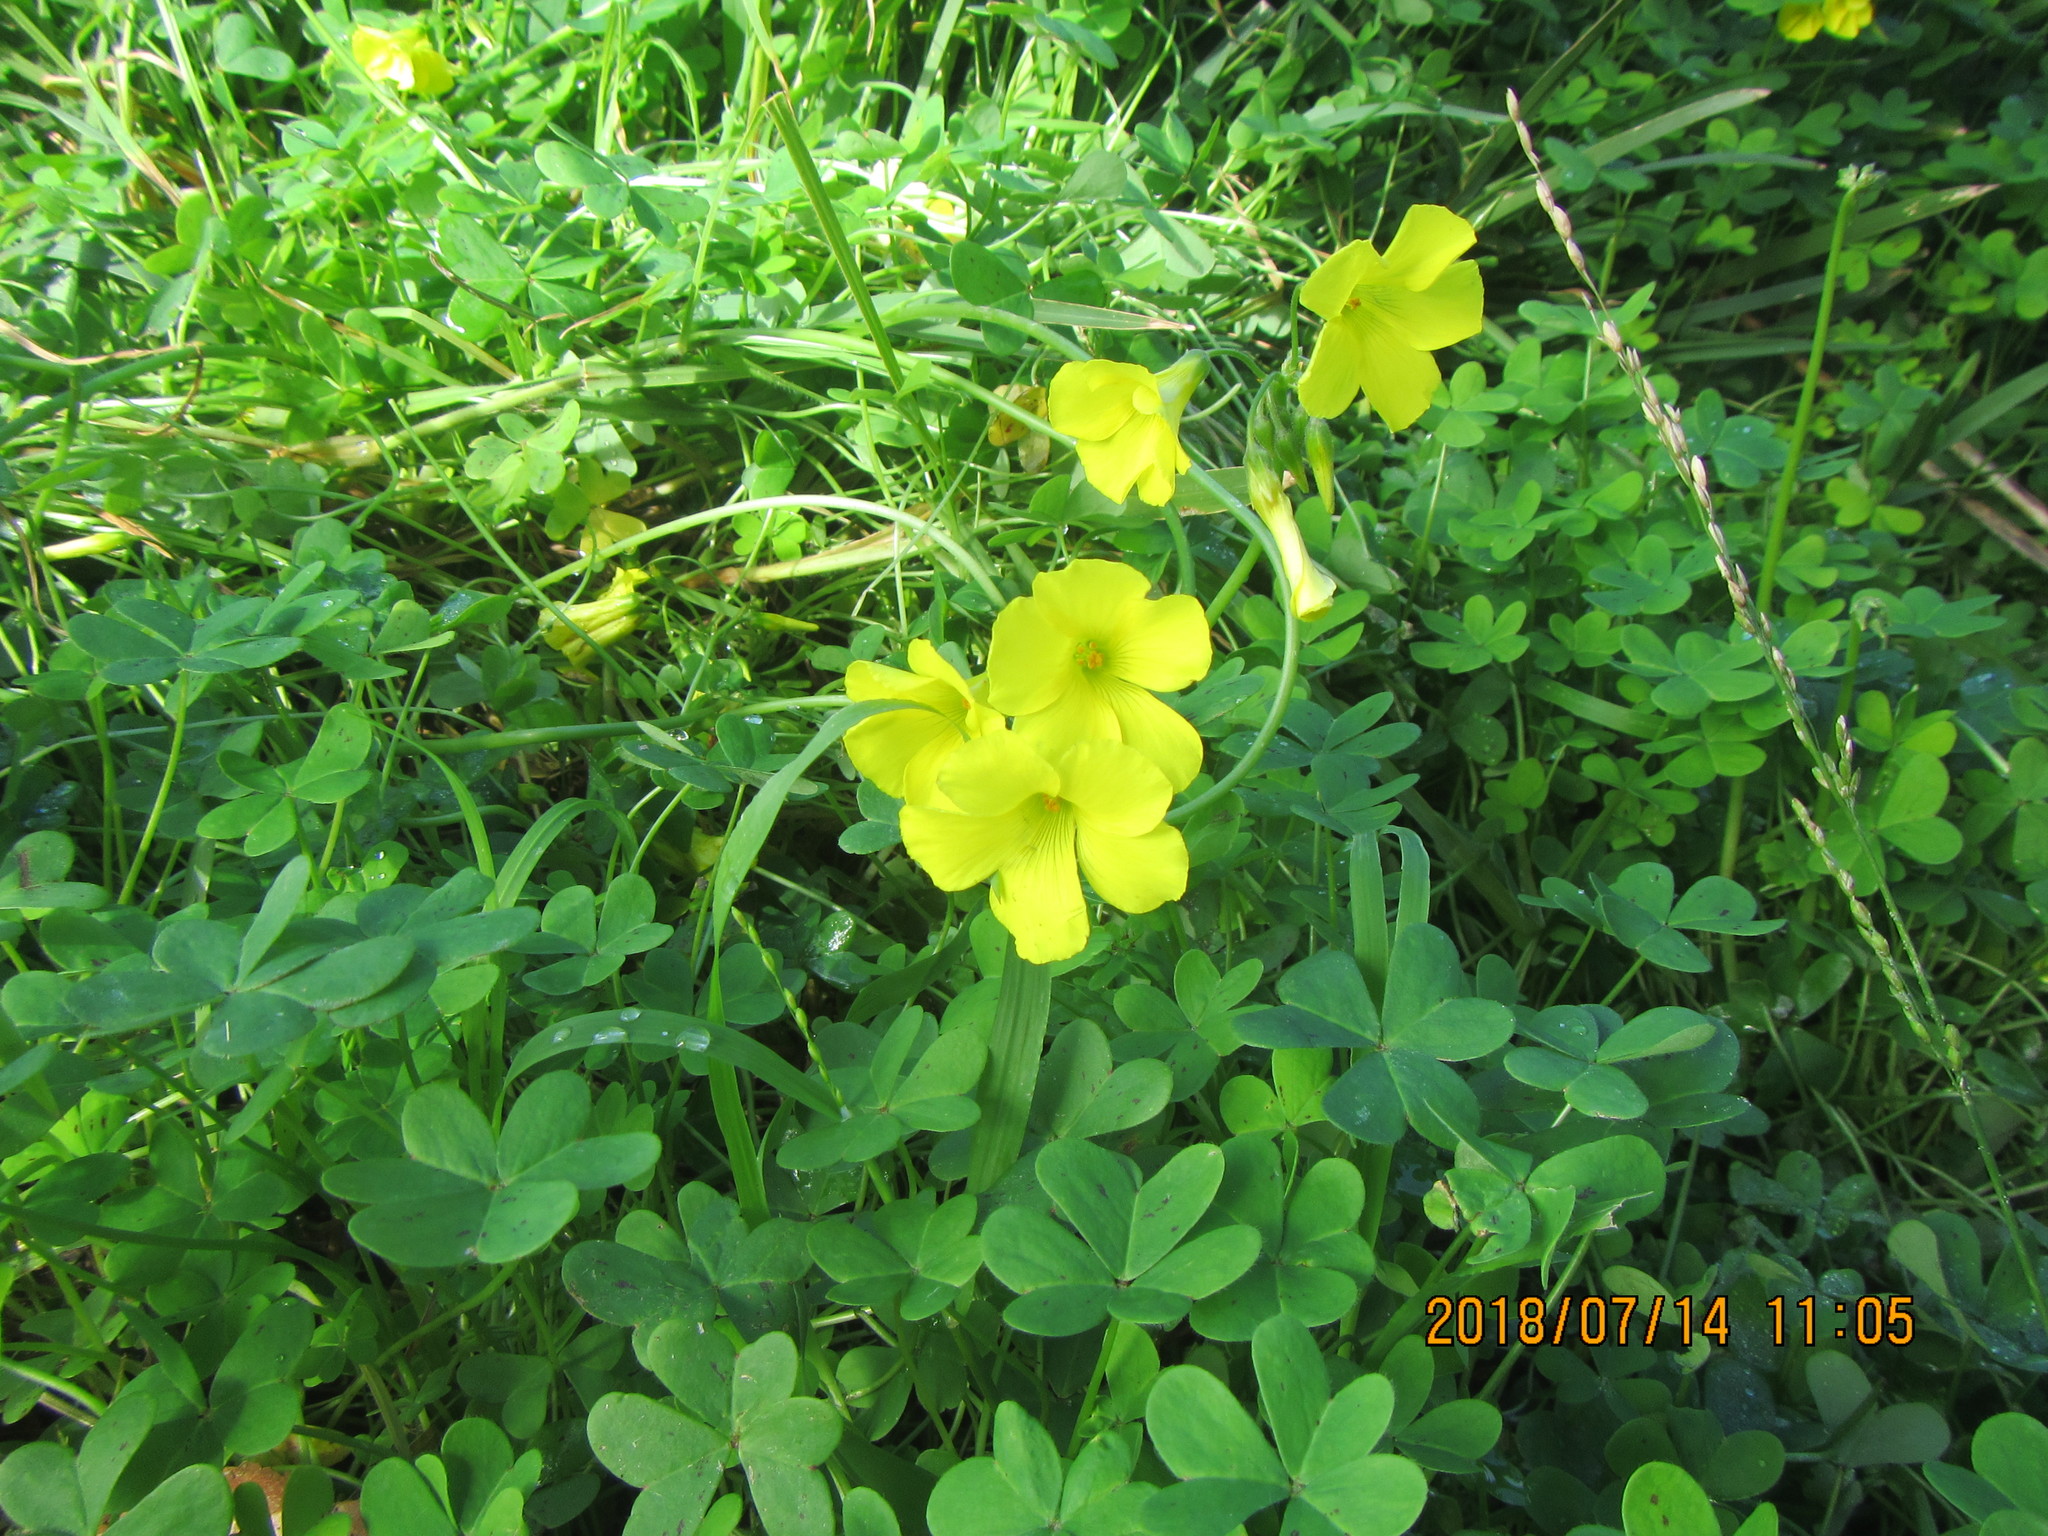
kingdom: Plantae
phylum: Tracheophyta
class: Magnoliopsida
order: Oxalidales
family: Oxalidaceae
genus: Oxalis
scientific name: Oxalis pes-caprae
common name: Bermuda-buttercup
